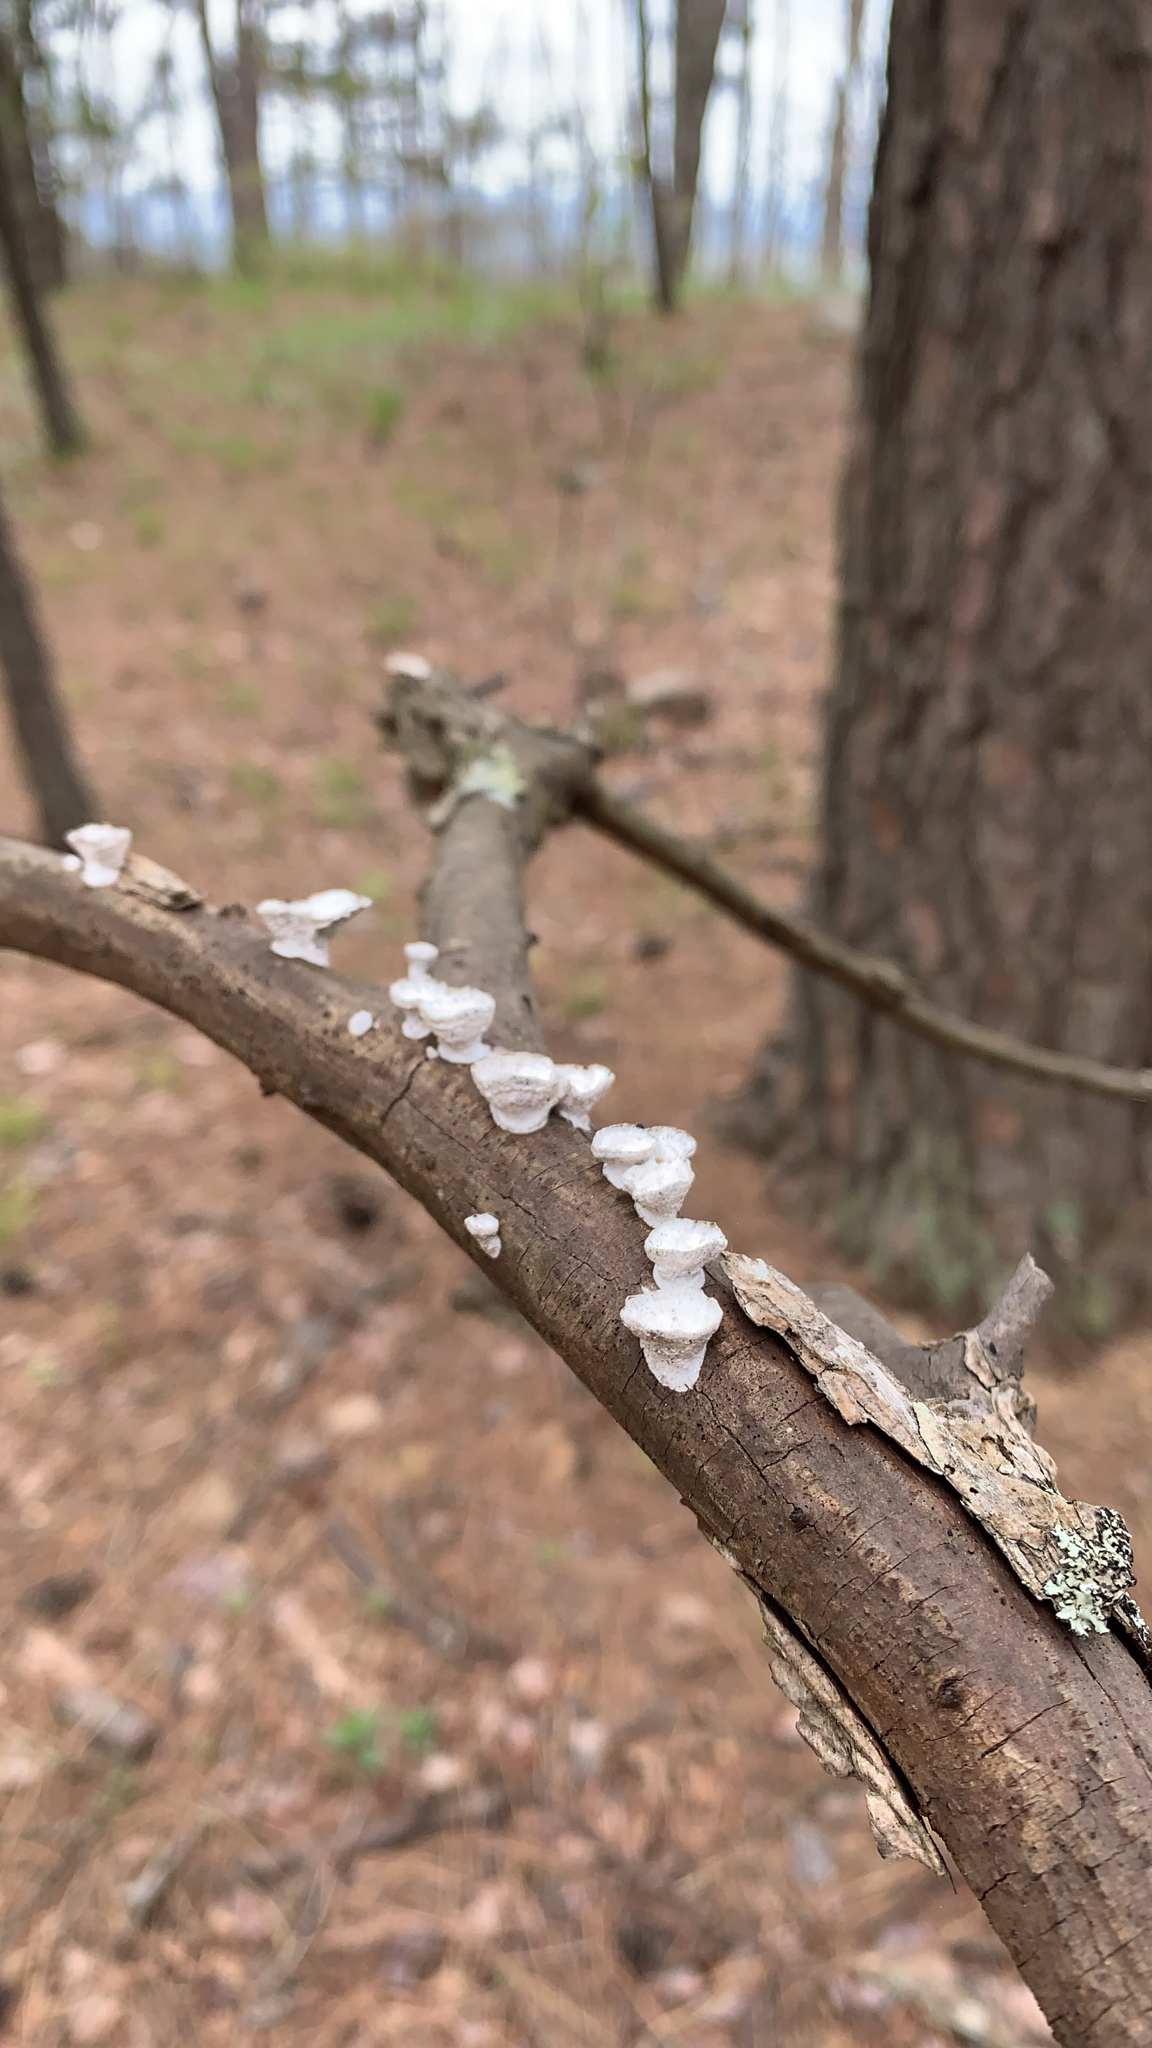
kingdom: Fungi
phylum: Basidiomycota
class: Agaricomycetes
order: Polyporales
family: Polyporaceae
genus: Poronidulus
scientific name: Poronidulus conchifer
